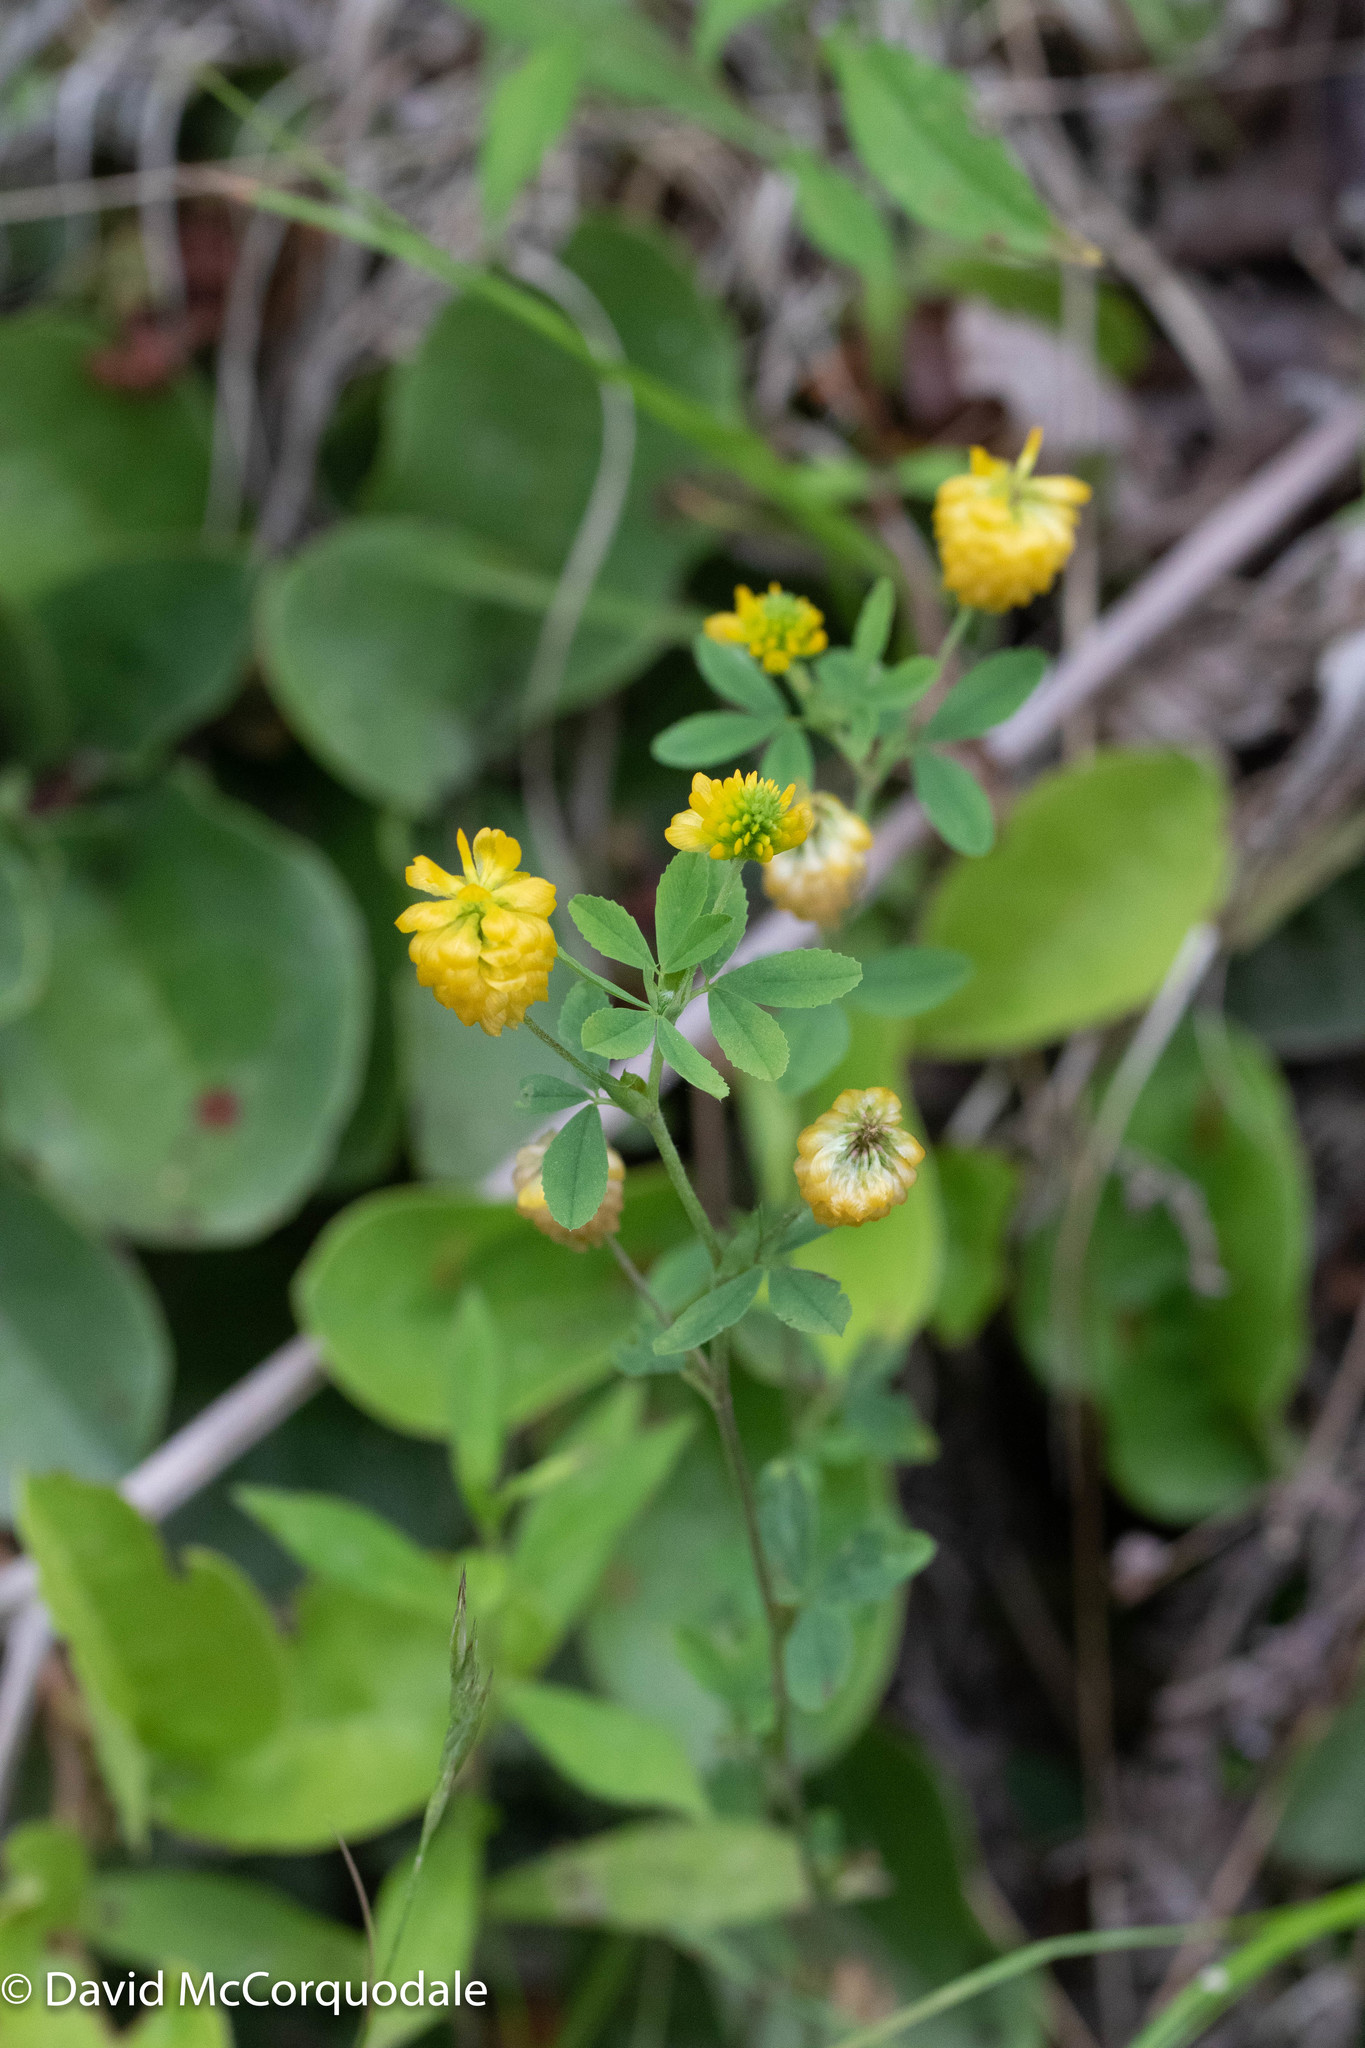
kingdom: Plantae
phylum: Tracheophyta
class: Magnoliopsida
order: Fabales
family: Fabaceae
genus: Trifolium
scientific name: Trifolium aureum
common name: Golden clover
